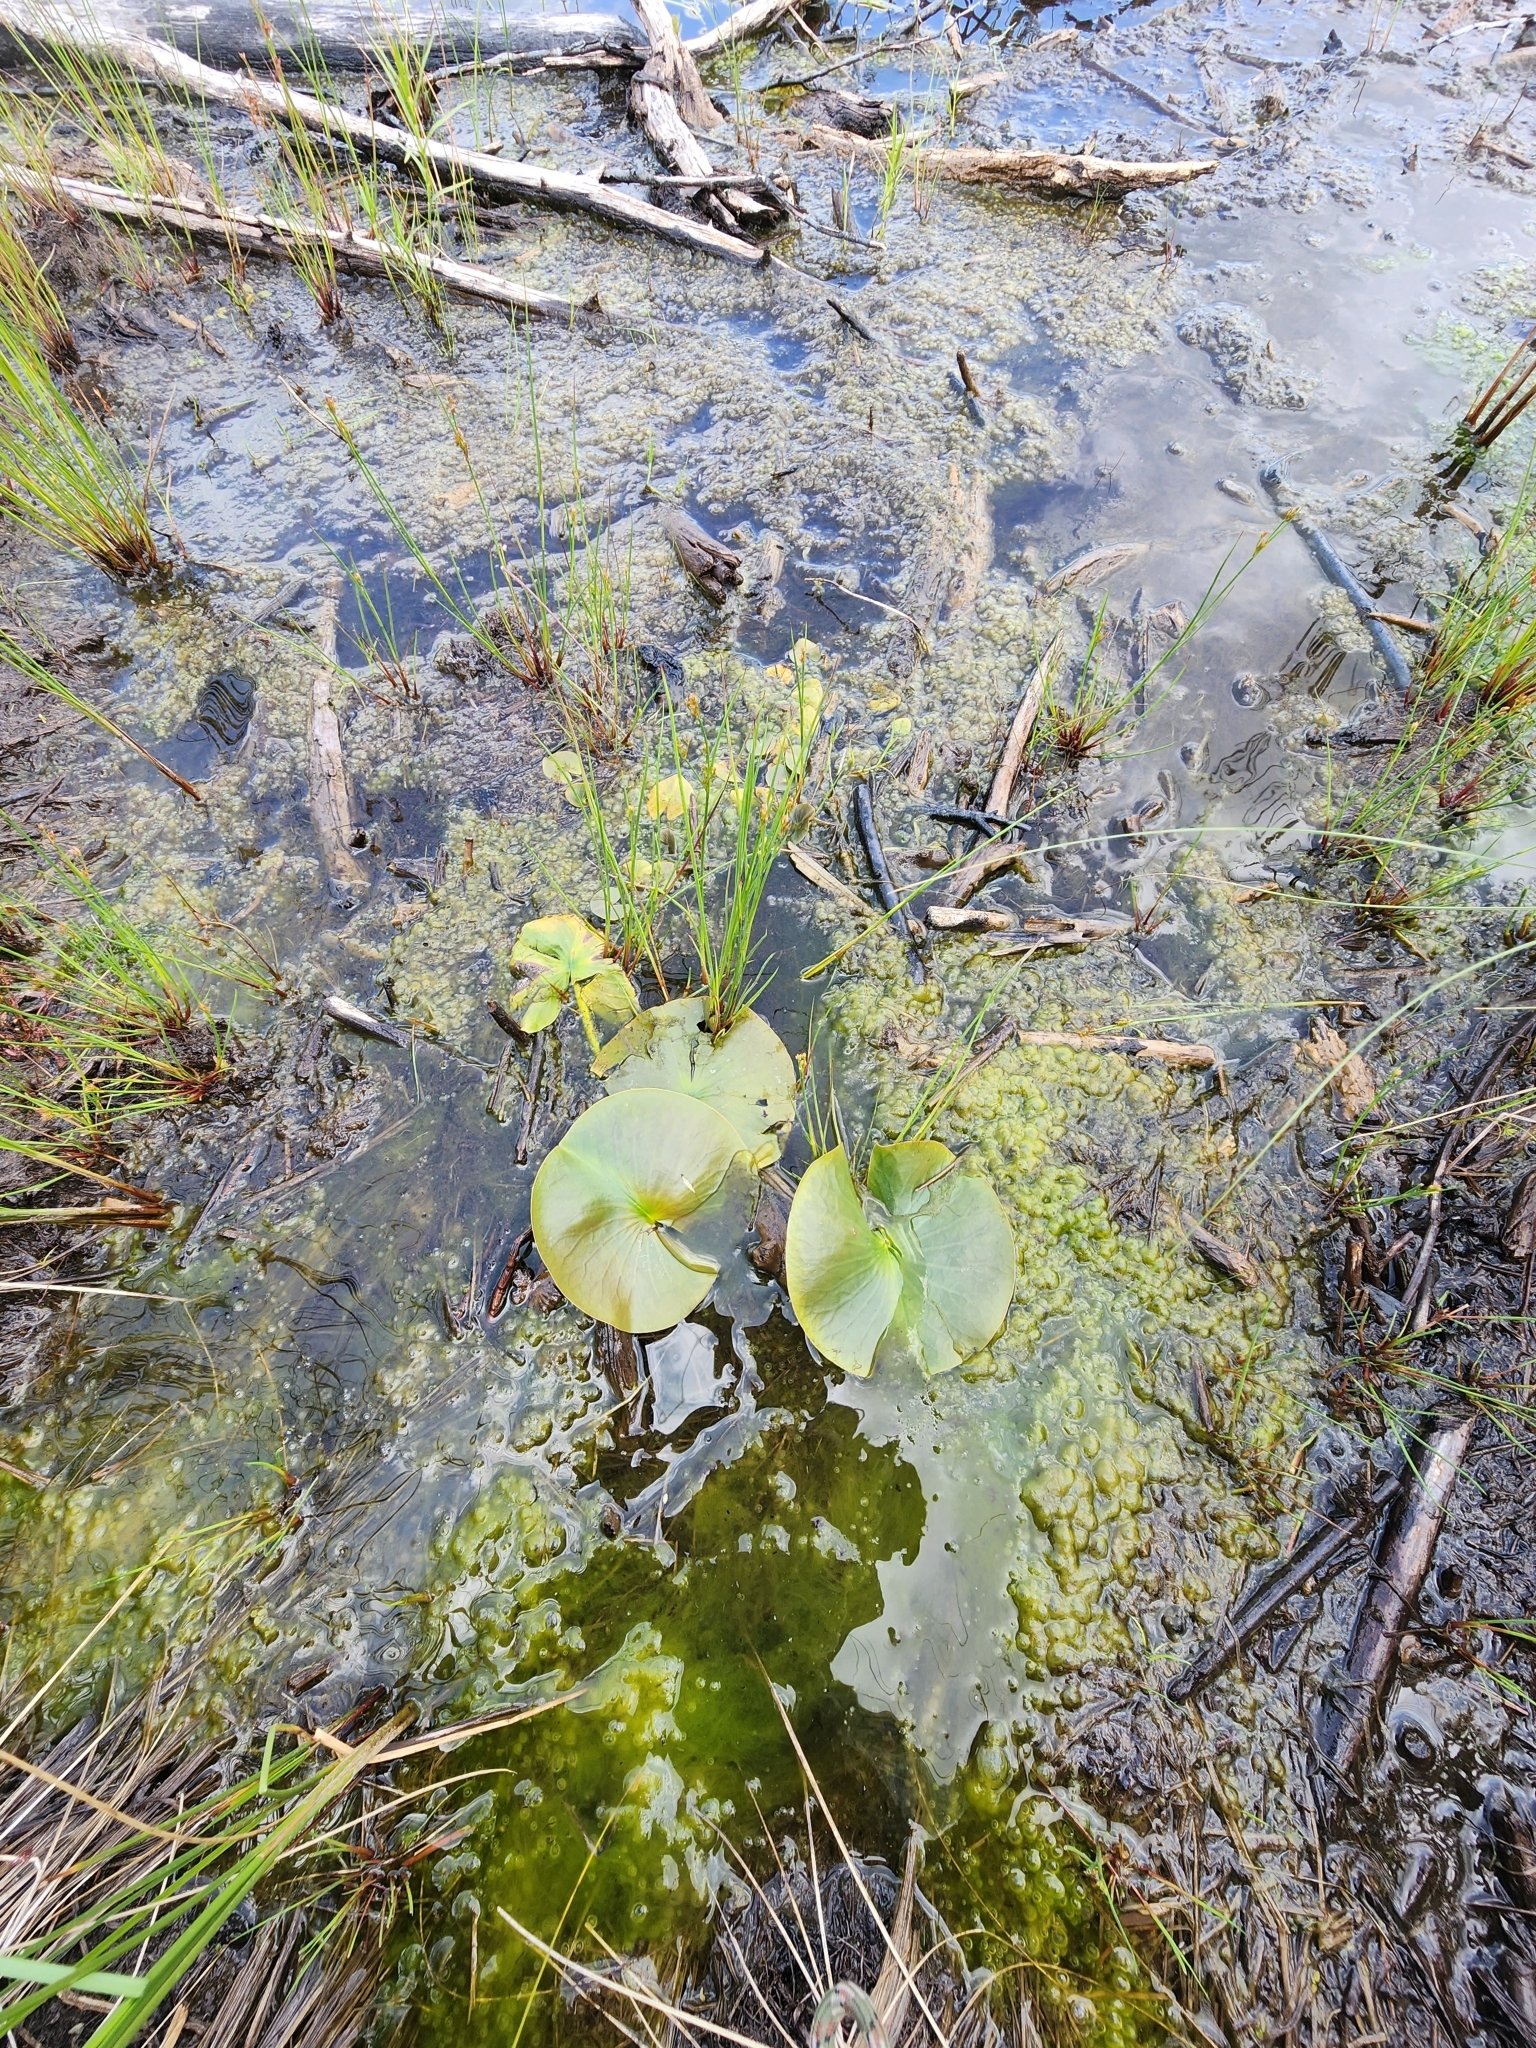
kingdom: Plantae
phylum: Tracheophyta
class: Magnoliopsida
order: Nymphaeales
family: Nymphaeaceae
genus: Nymphaea
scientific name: Nymphaea odorata
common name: Fragrant water-lily
